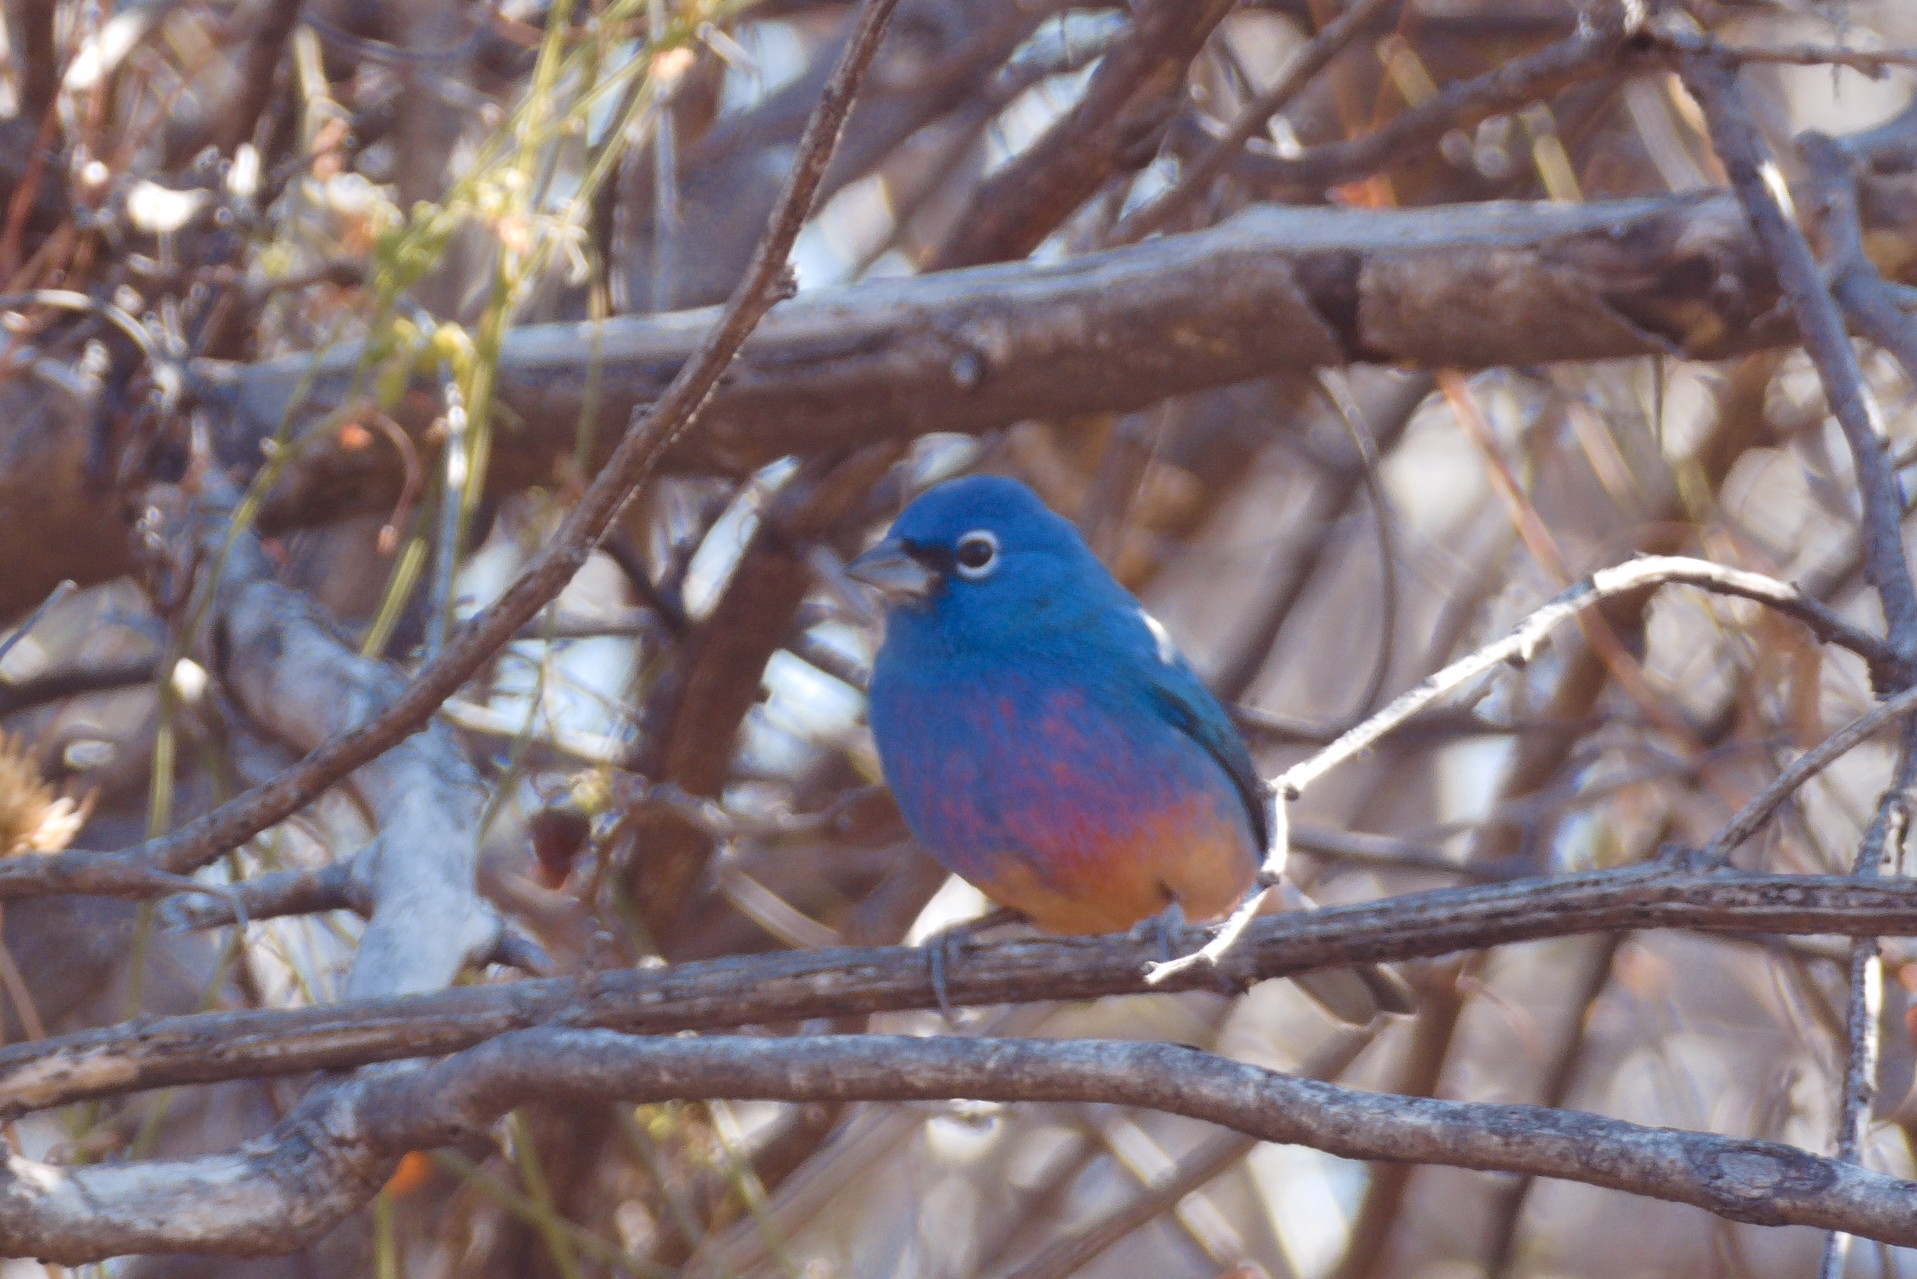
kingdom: Animalia
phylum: Chordata
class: Aves
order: Passeriformes
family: Cardinalidae
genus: Passerina
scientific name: Passerina rositae
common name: Rose-bellied bunting
